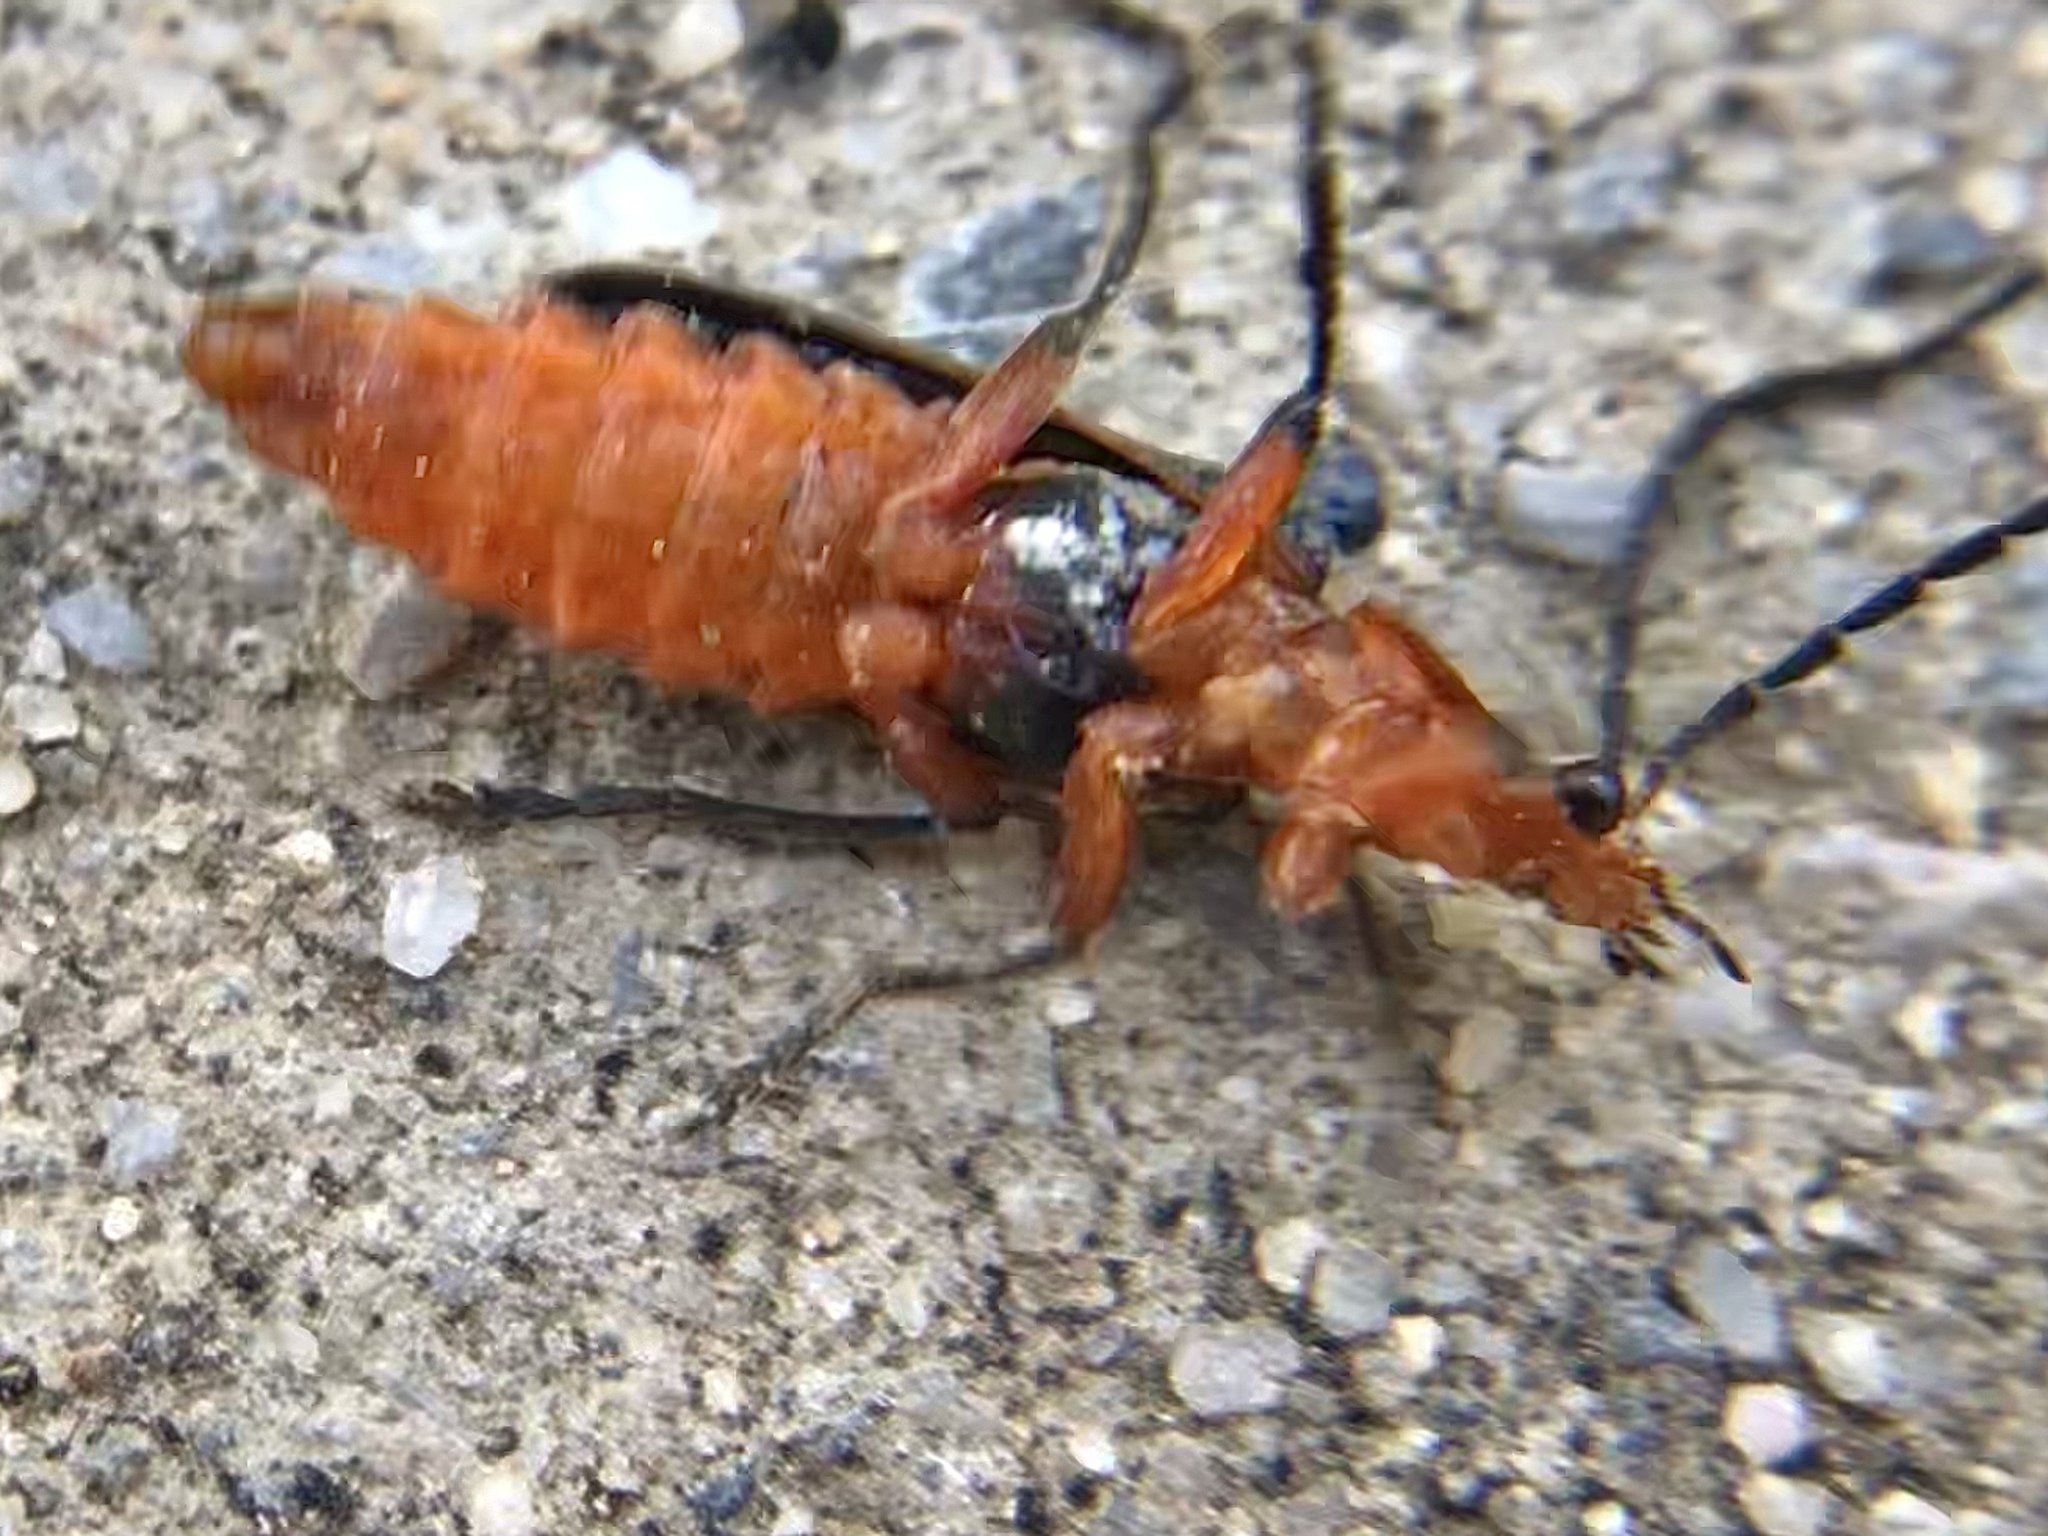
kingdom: Animalia
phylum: Arthropoda
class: Insecta
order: Coleoptera
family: Cantharidae
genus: Atalantycha
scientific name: Atalantycha bilineata
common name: Two-lined leatherwing
